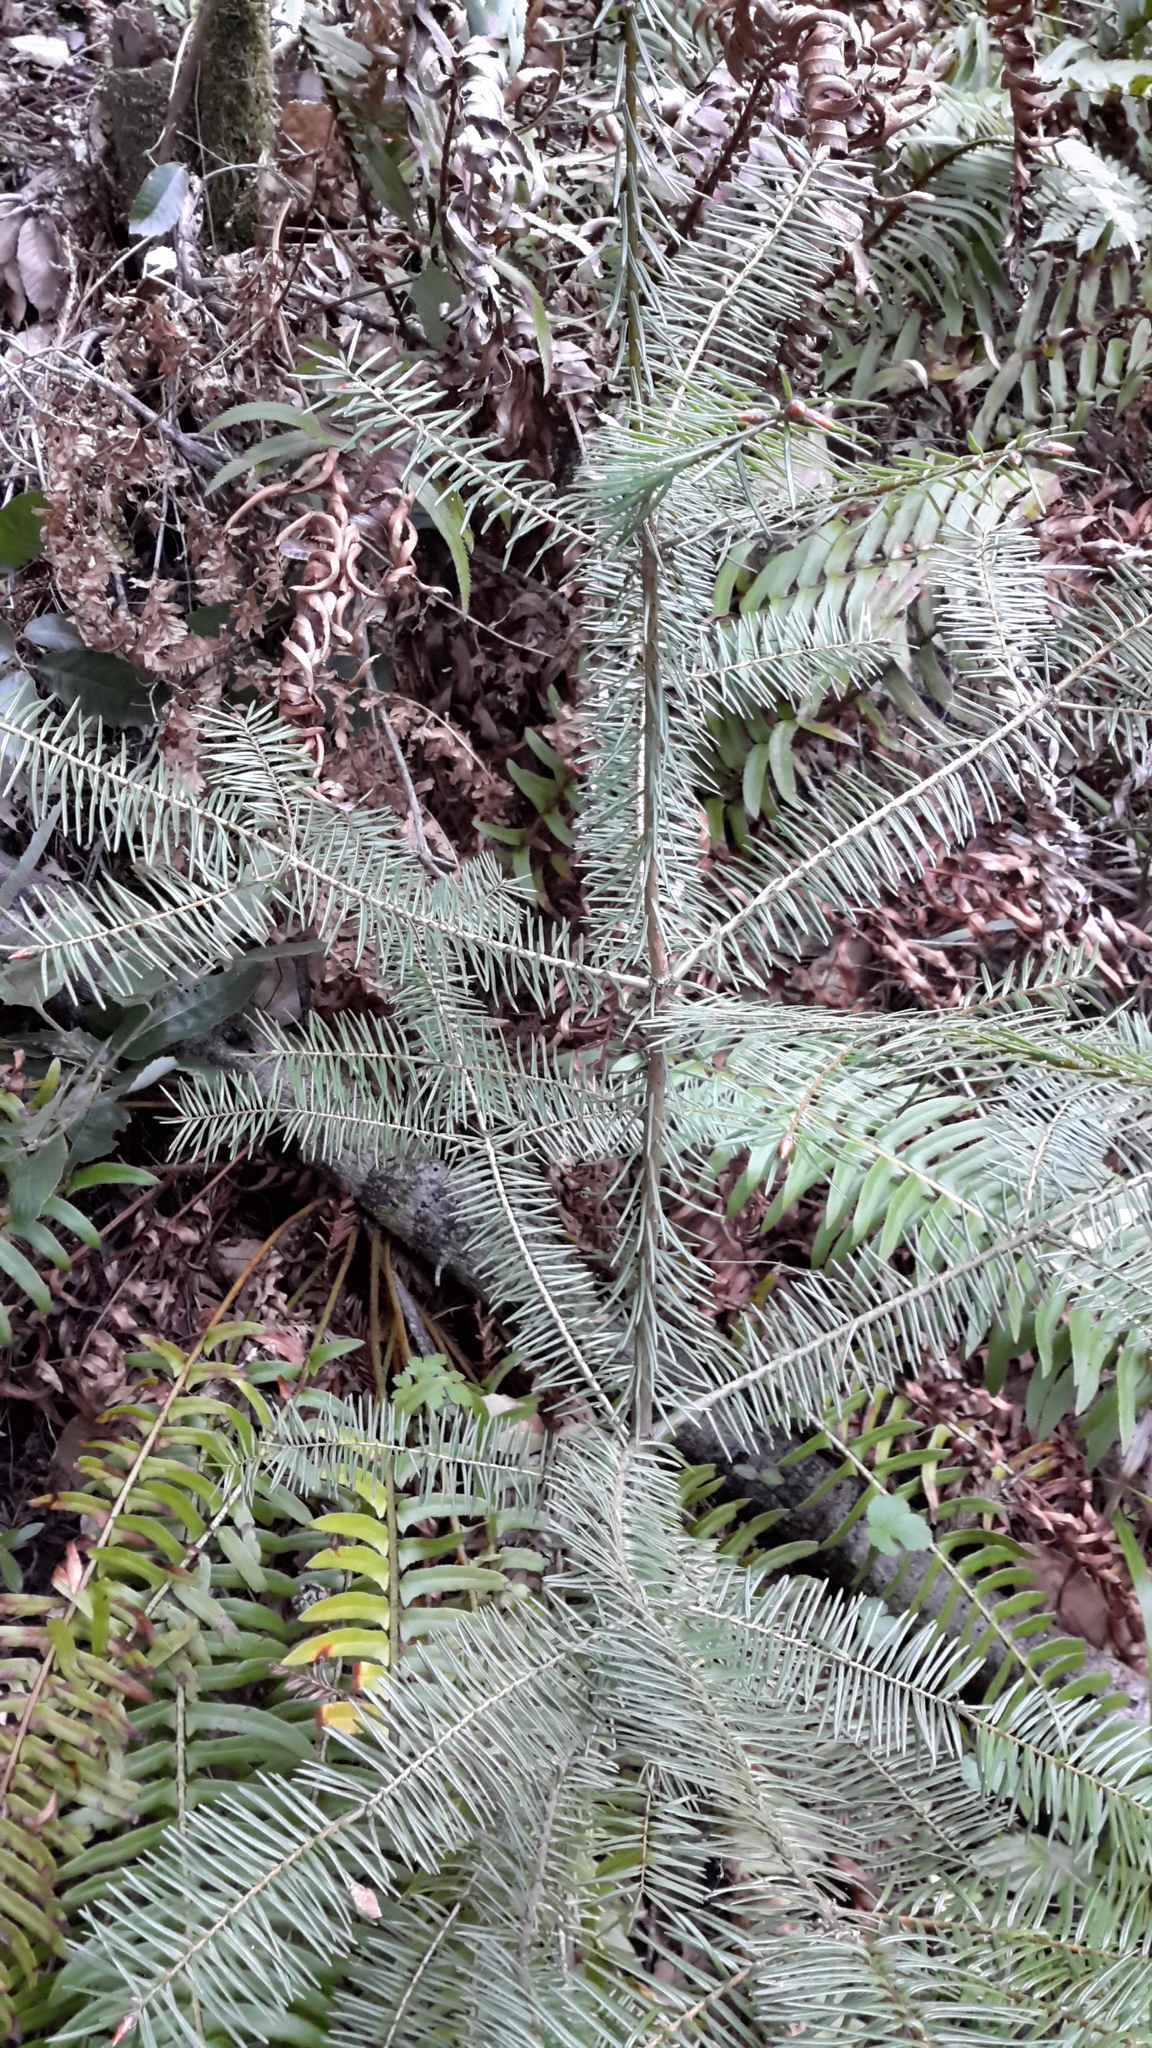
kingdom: Plantae
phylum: Tracheophyta
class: Pinopsida
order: Pinales
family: Pinaceae
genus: Pseudotsuga
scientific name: Pseudotsuga menziesii
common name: Douglas fir
